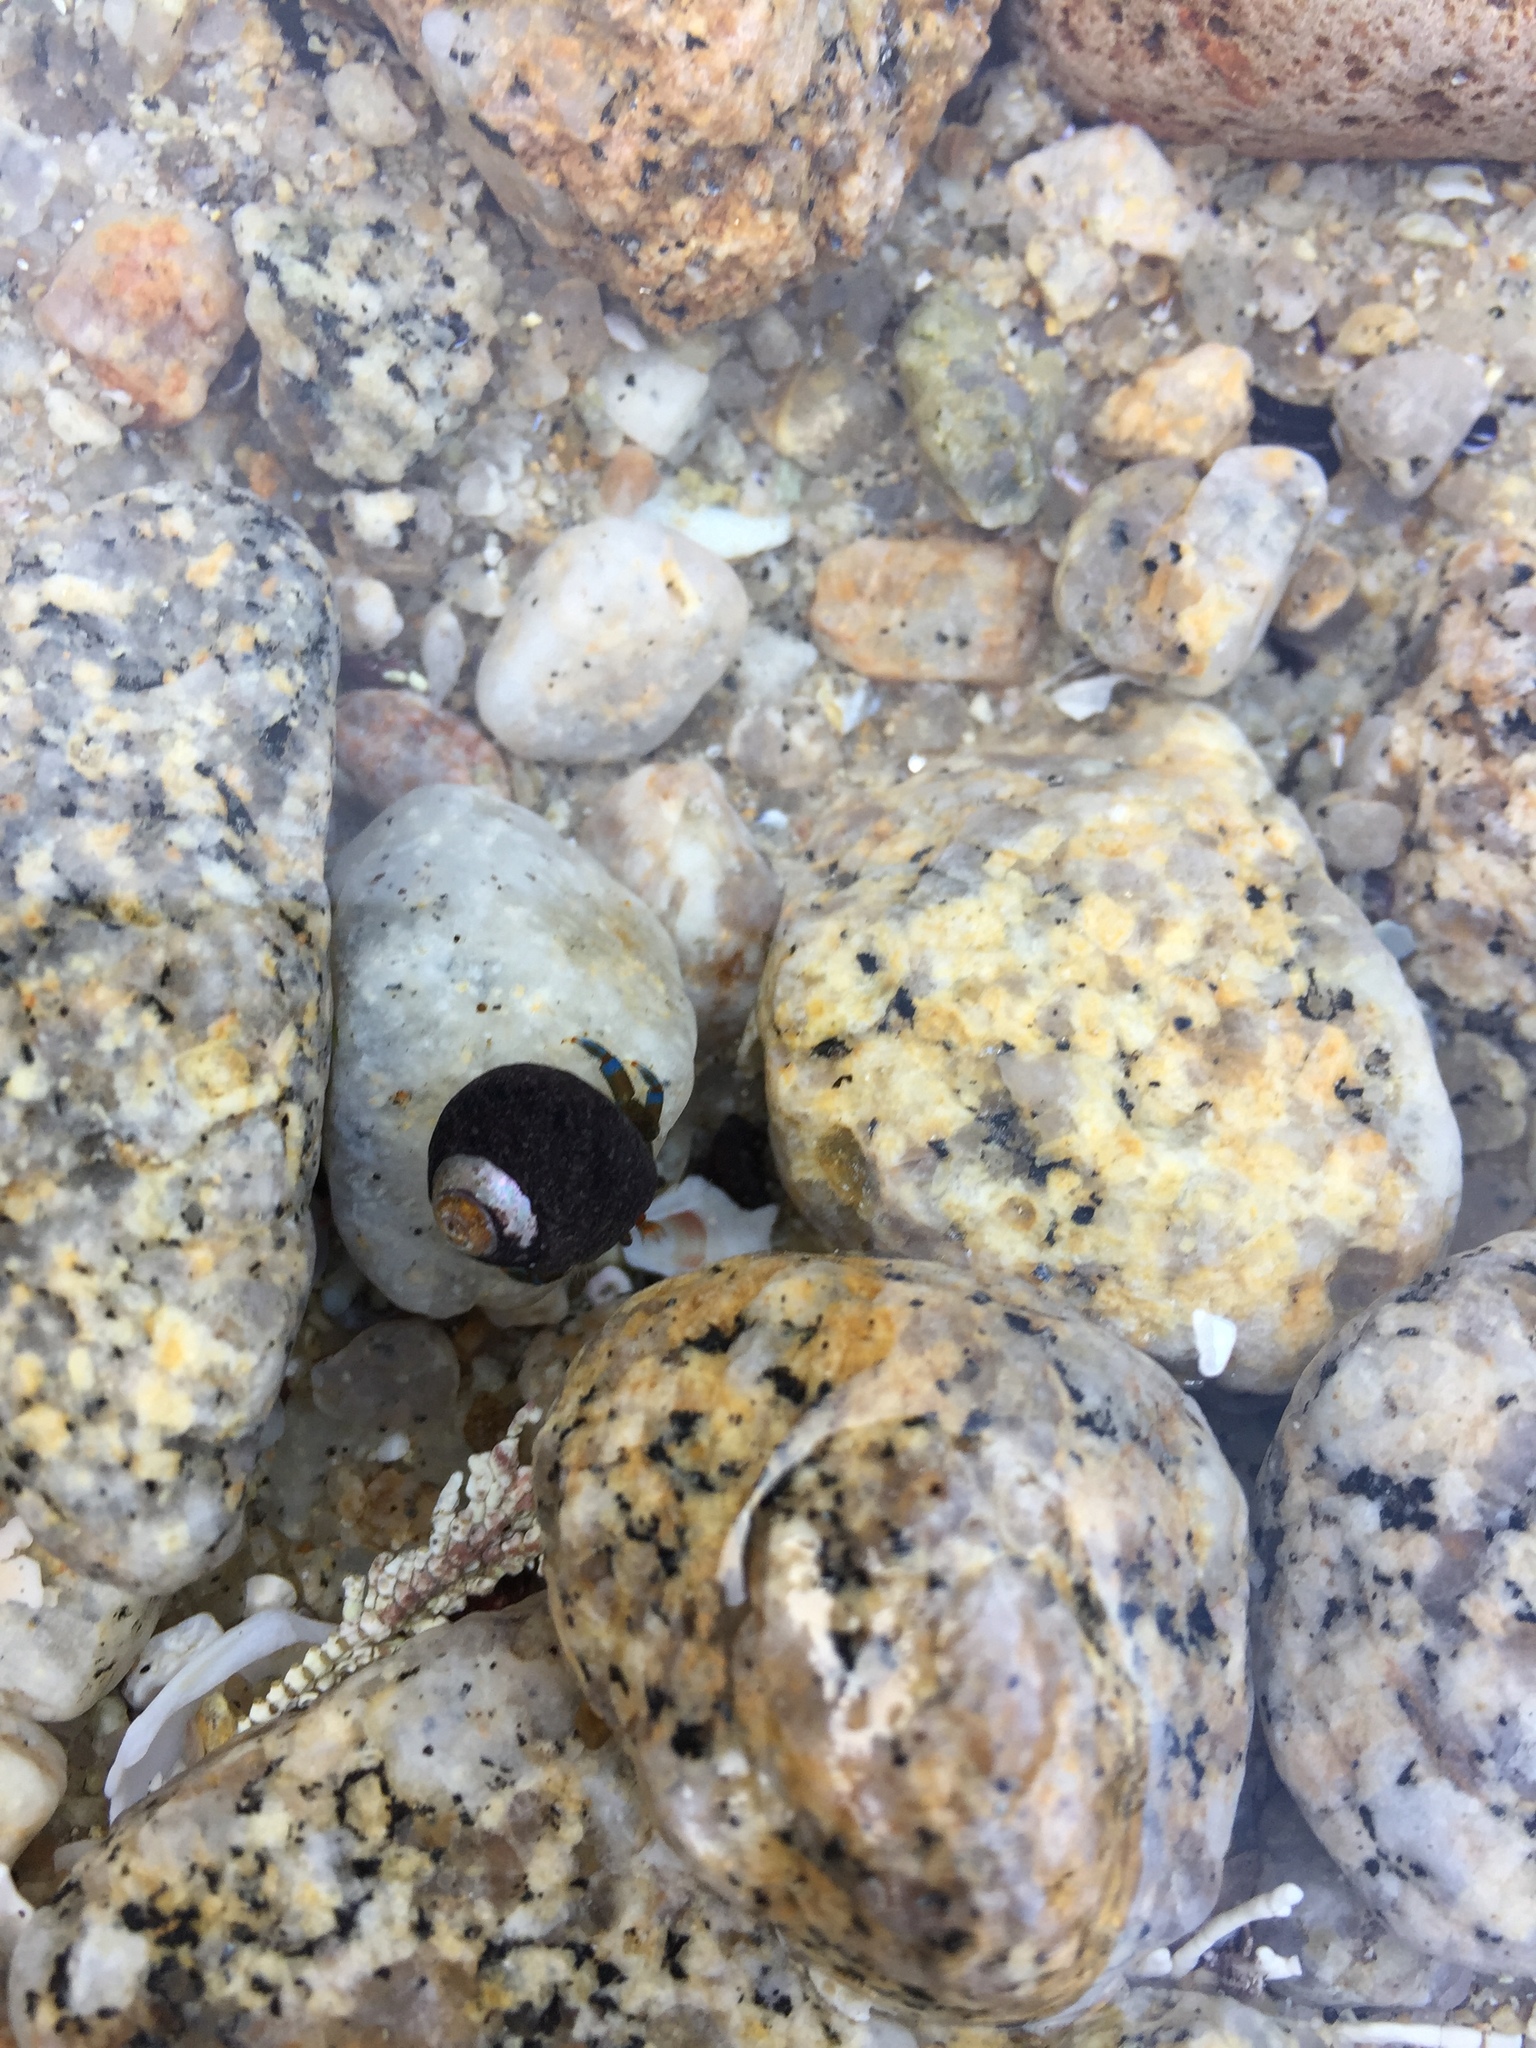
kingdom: Animalia
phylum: Arthropoda
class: Malacostraca
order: Decapoda
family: Paguridae
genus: Pagurus
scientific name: Pagurus samuelis
